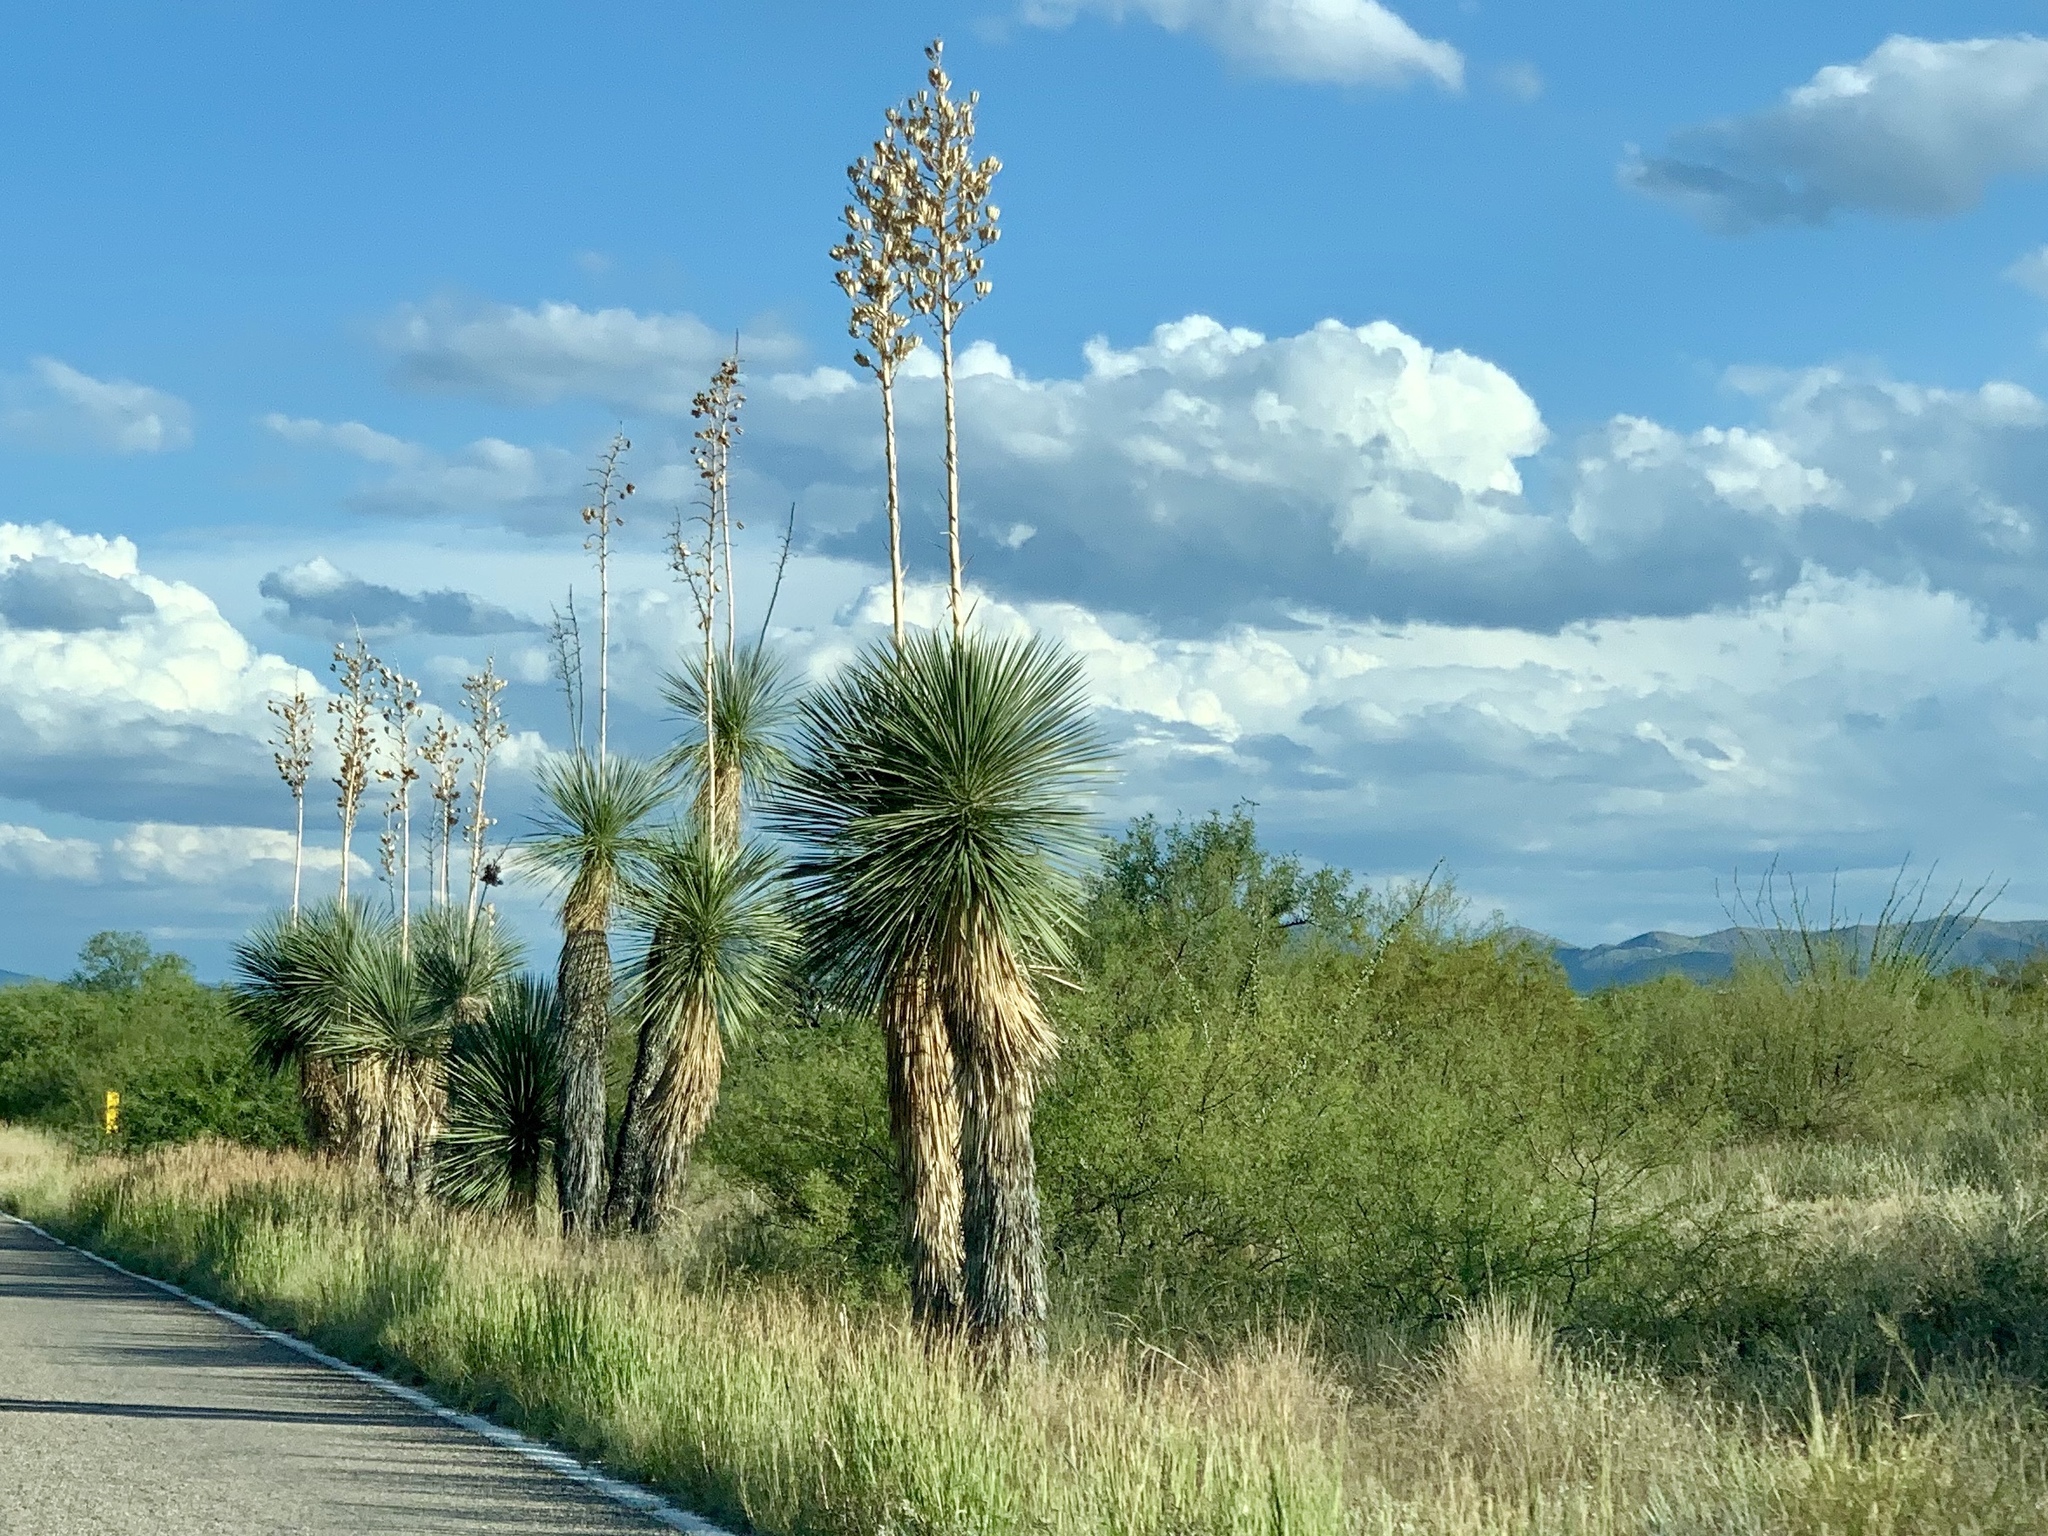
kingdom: Plantae
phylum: Tracheophyta
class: Liliopsida
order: Asparagales
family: Asparagaceae
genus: Yucca
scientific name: Yucca elata
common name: Palmella
